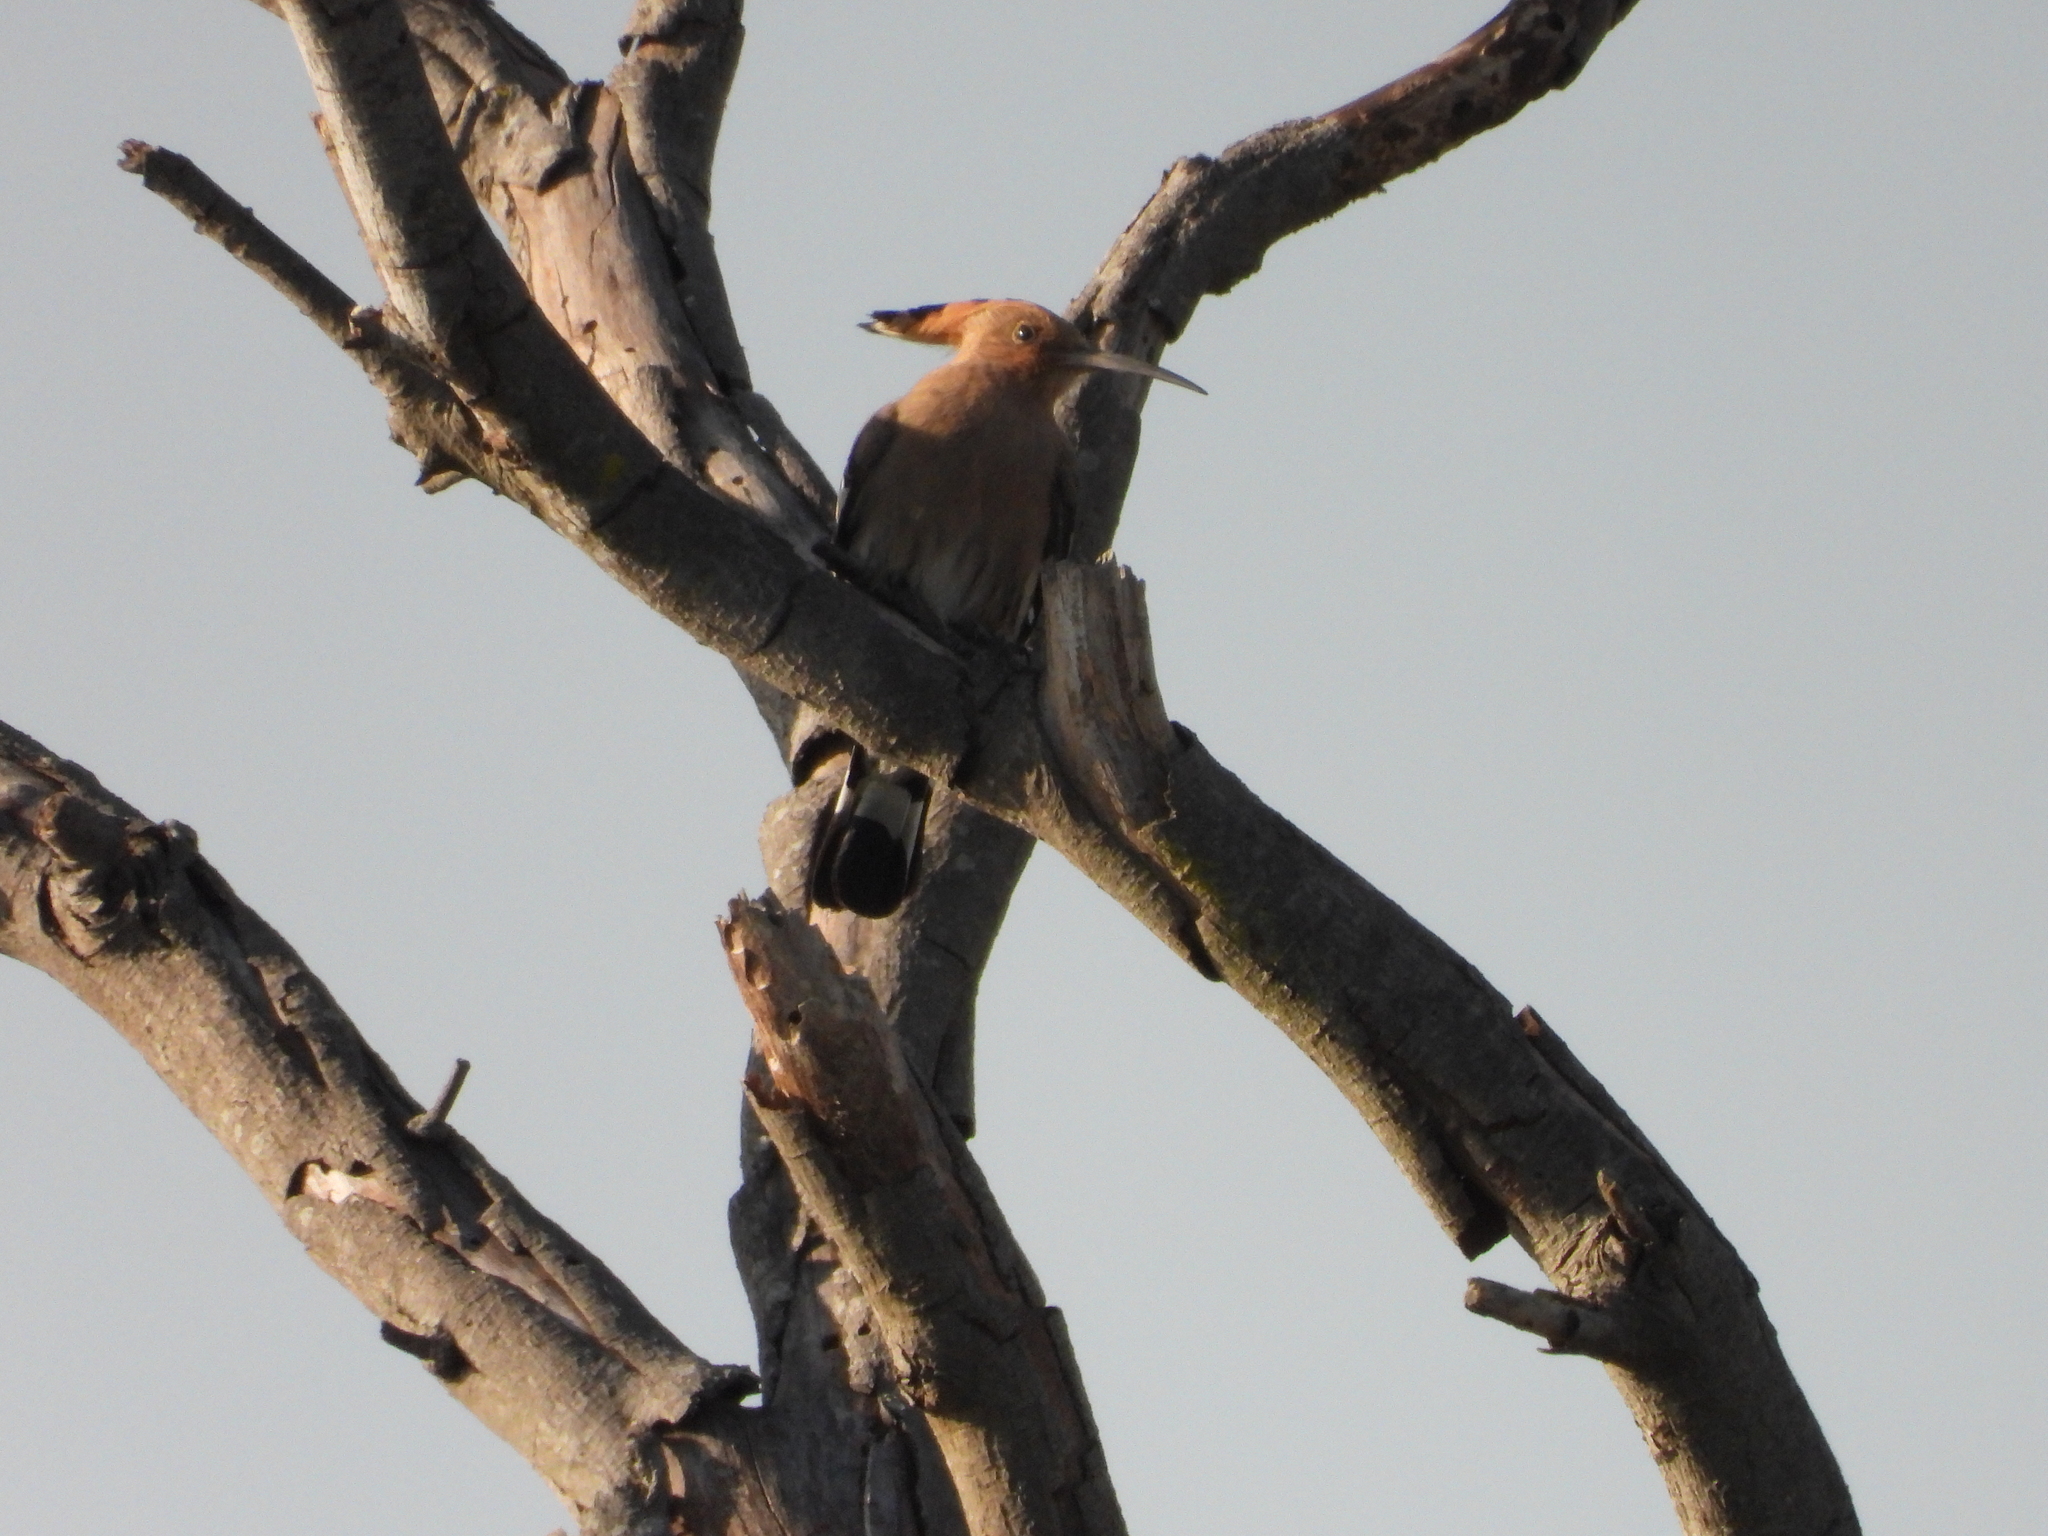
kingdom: Animalia
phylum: Chordata
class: Aves
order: Bucerotiformes
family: Upupidae
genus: Upupa
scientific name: Upupa epops
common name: Eurasian hoopoe
